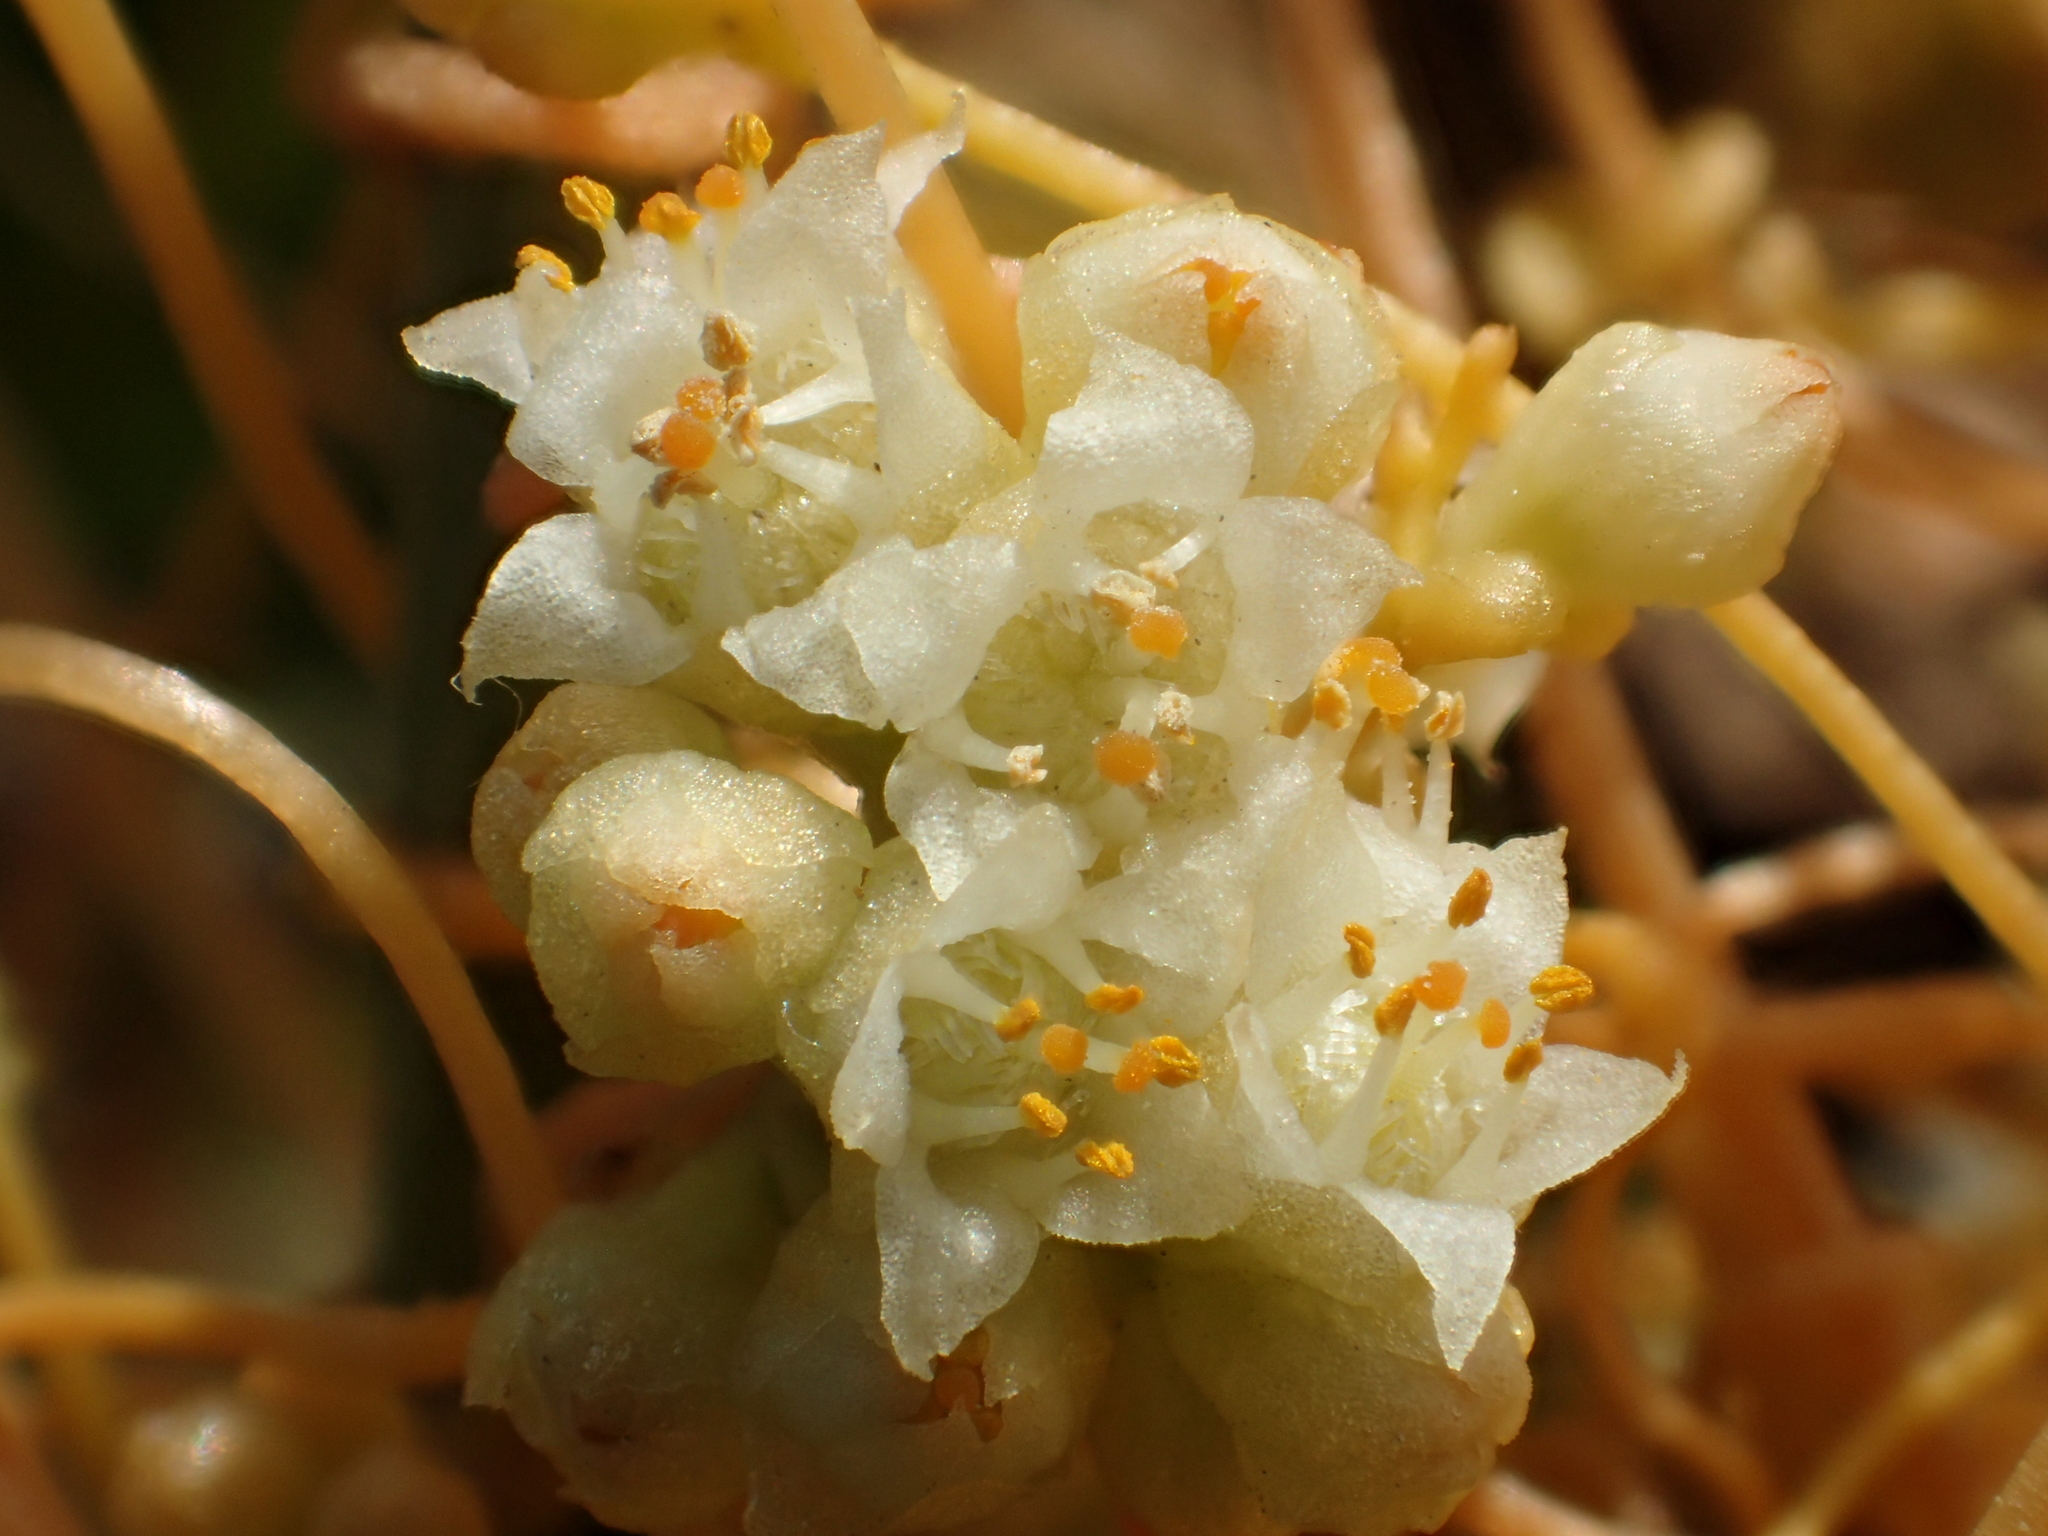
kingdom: Plantae
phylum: Tracheophyta
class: Magnoliopsida
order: Solanales
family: Convolvulaceae
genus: Cuscuta
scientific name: Cuscuta campestris
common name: Yellow dodder
